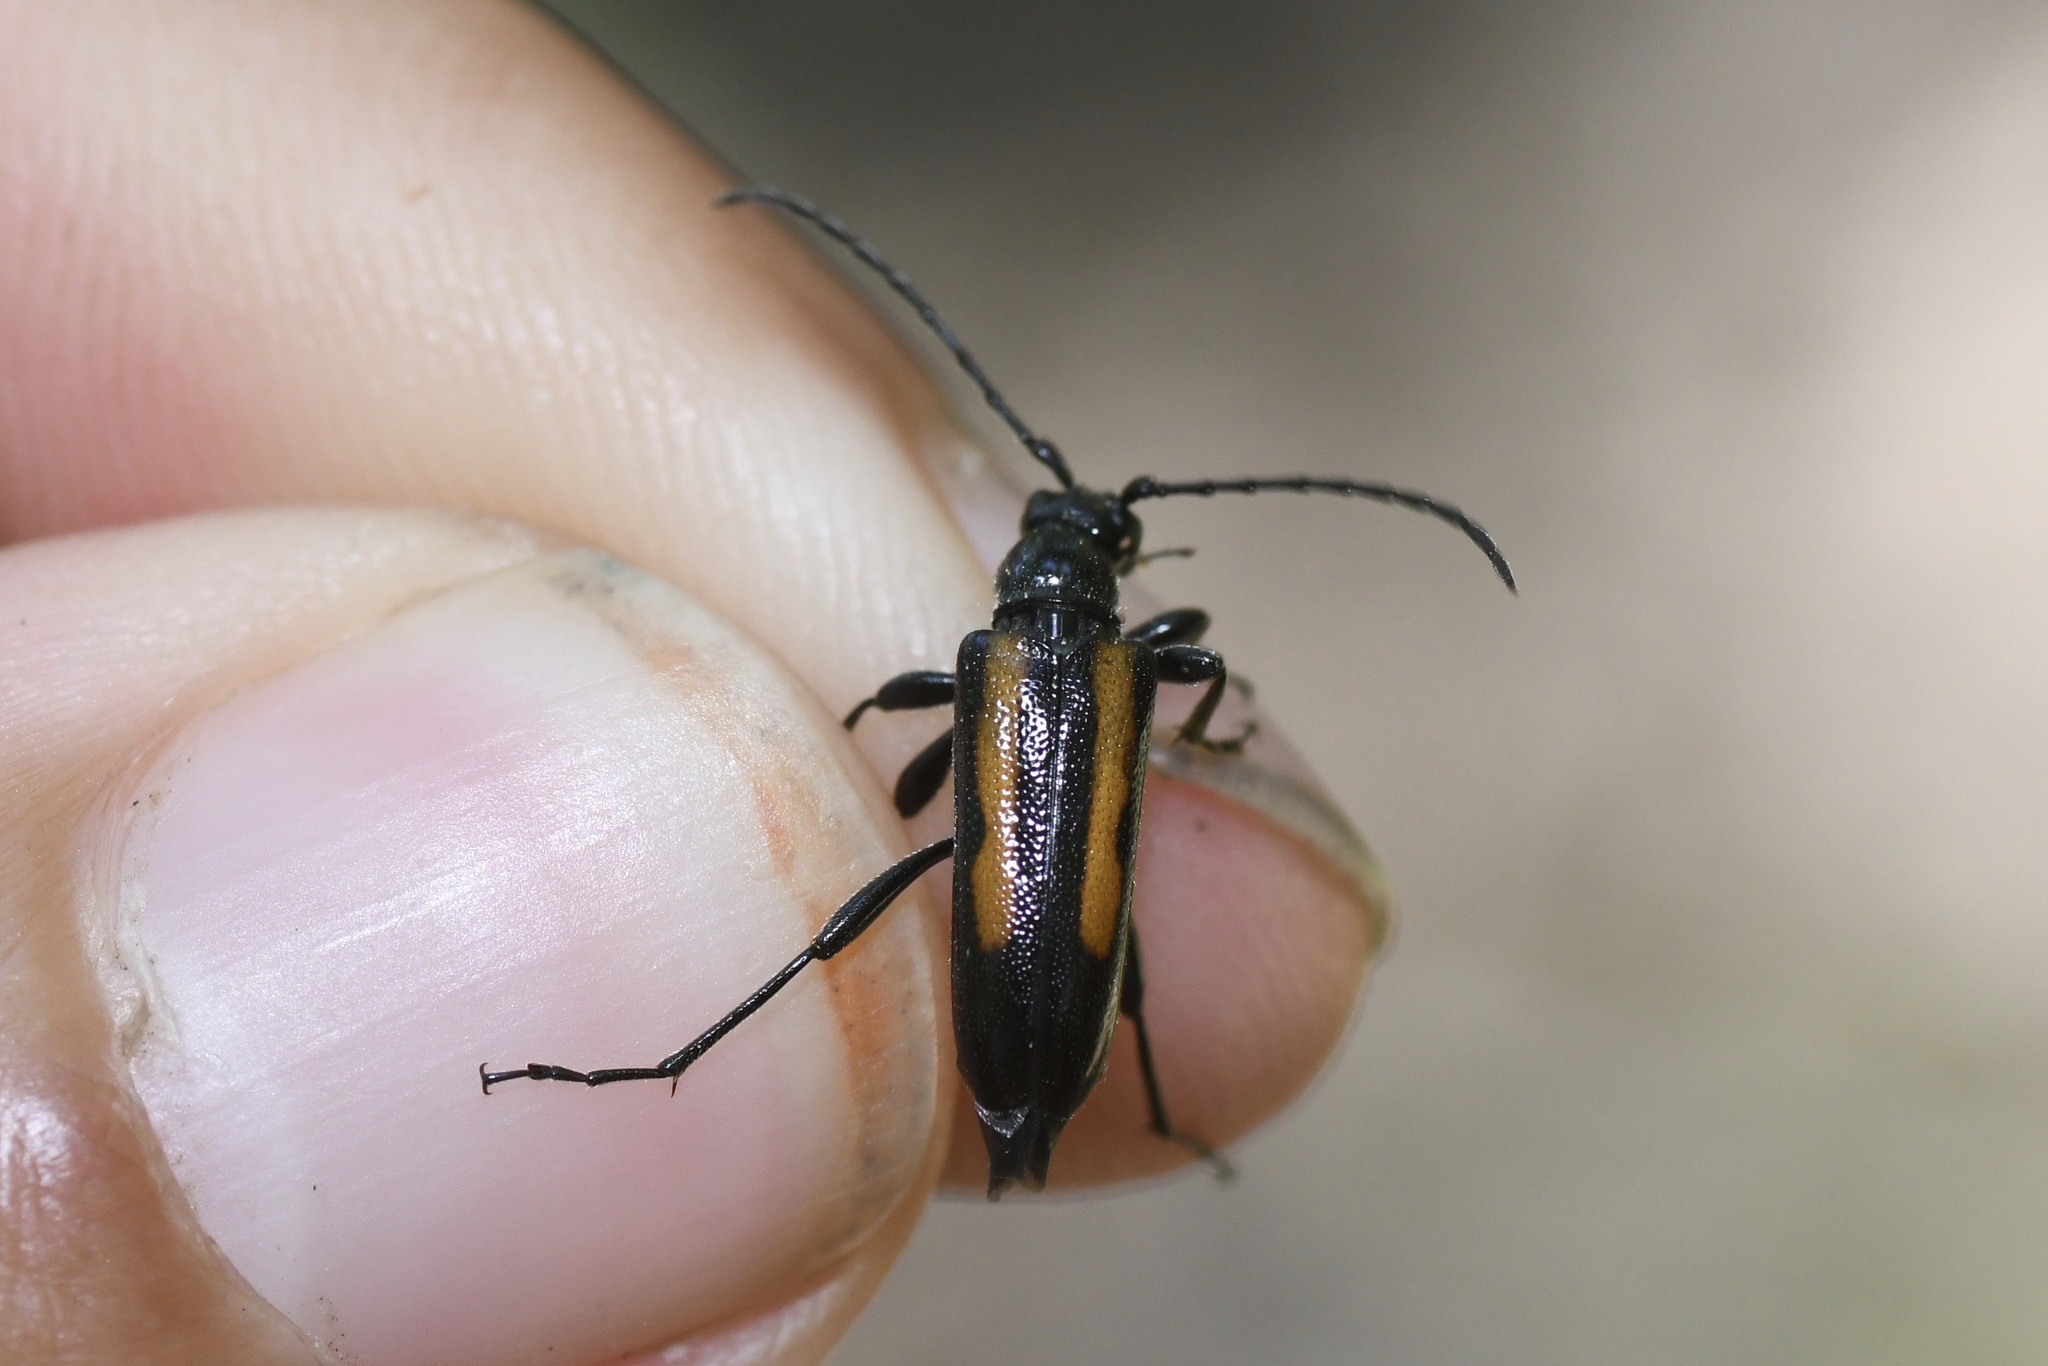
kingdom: Animalia
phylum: Arthropoda
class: Insecta
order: Coleoptera
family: Cerambycidae
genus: Strangalepta
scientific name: Strangalepta abbreviata
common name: Strangalepta flower longhorn beetle
